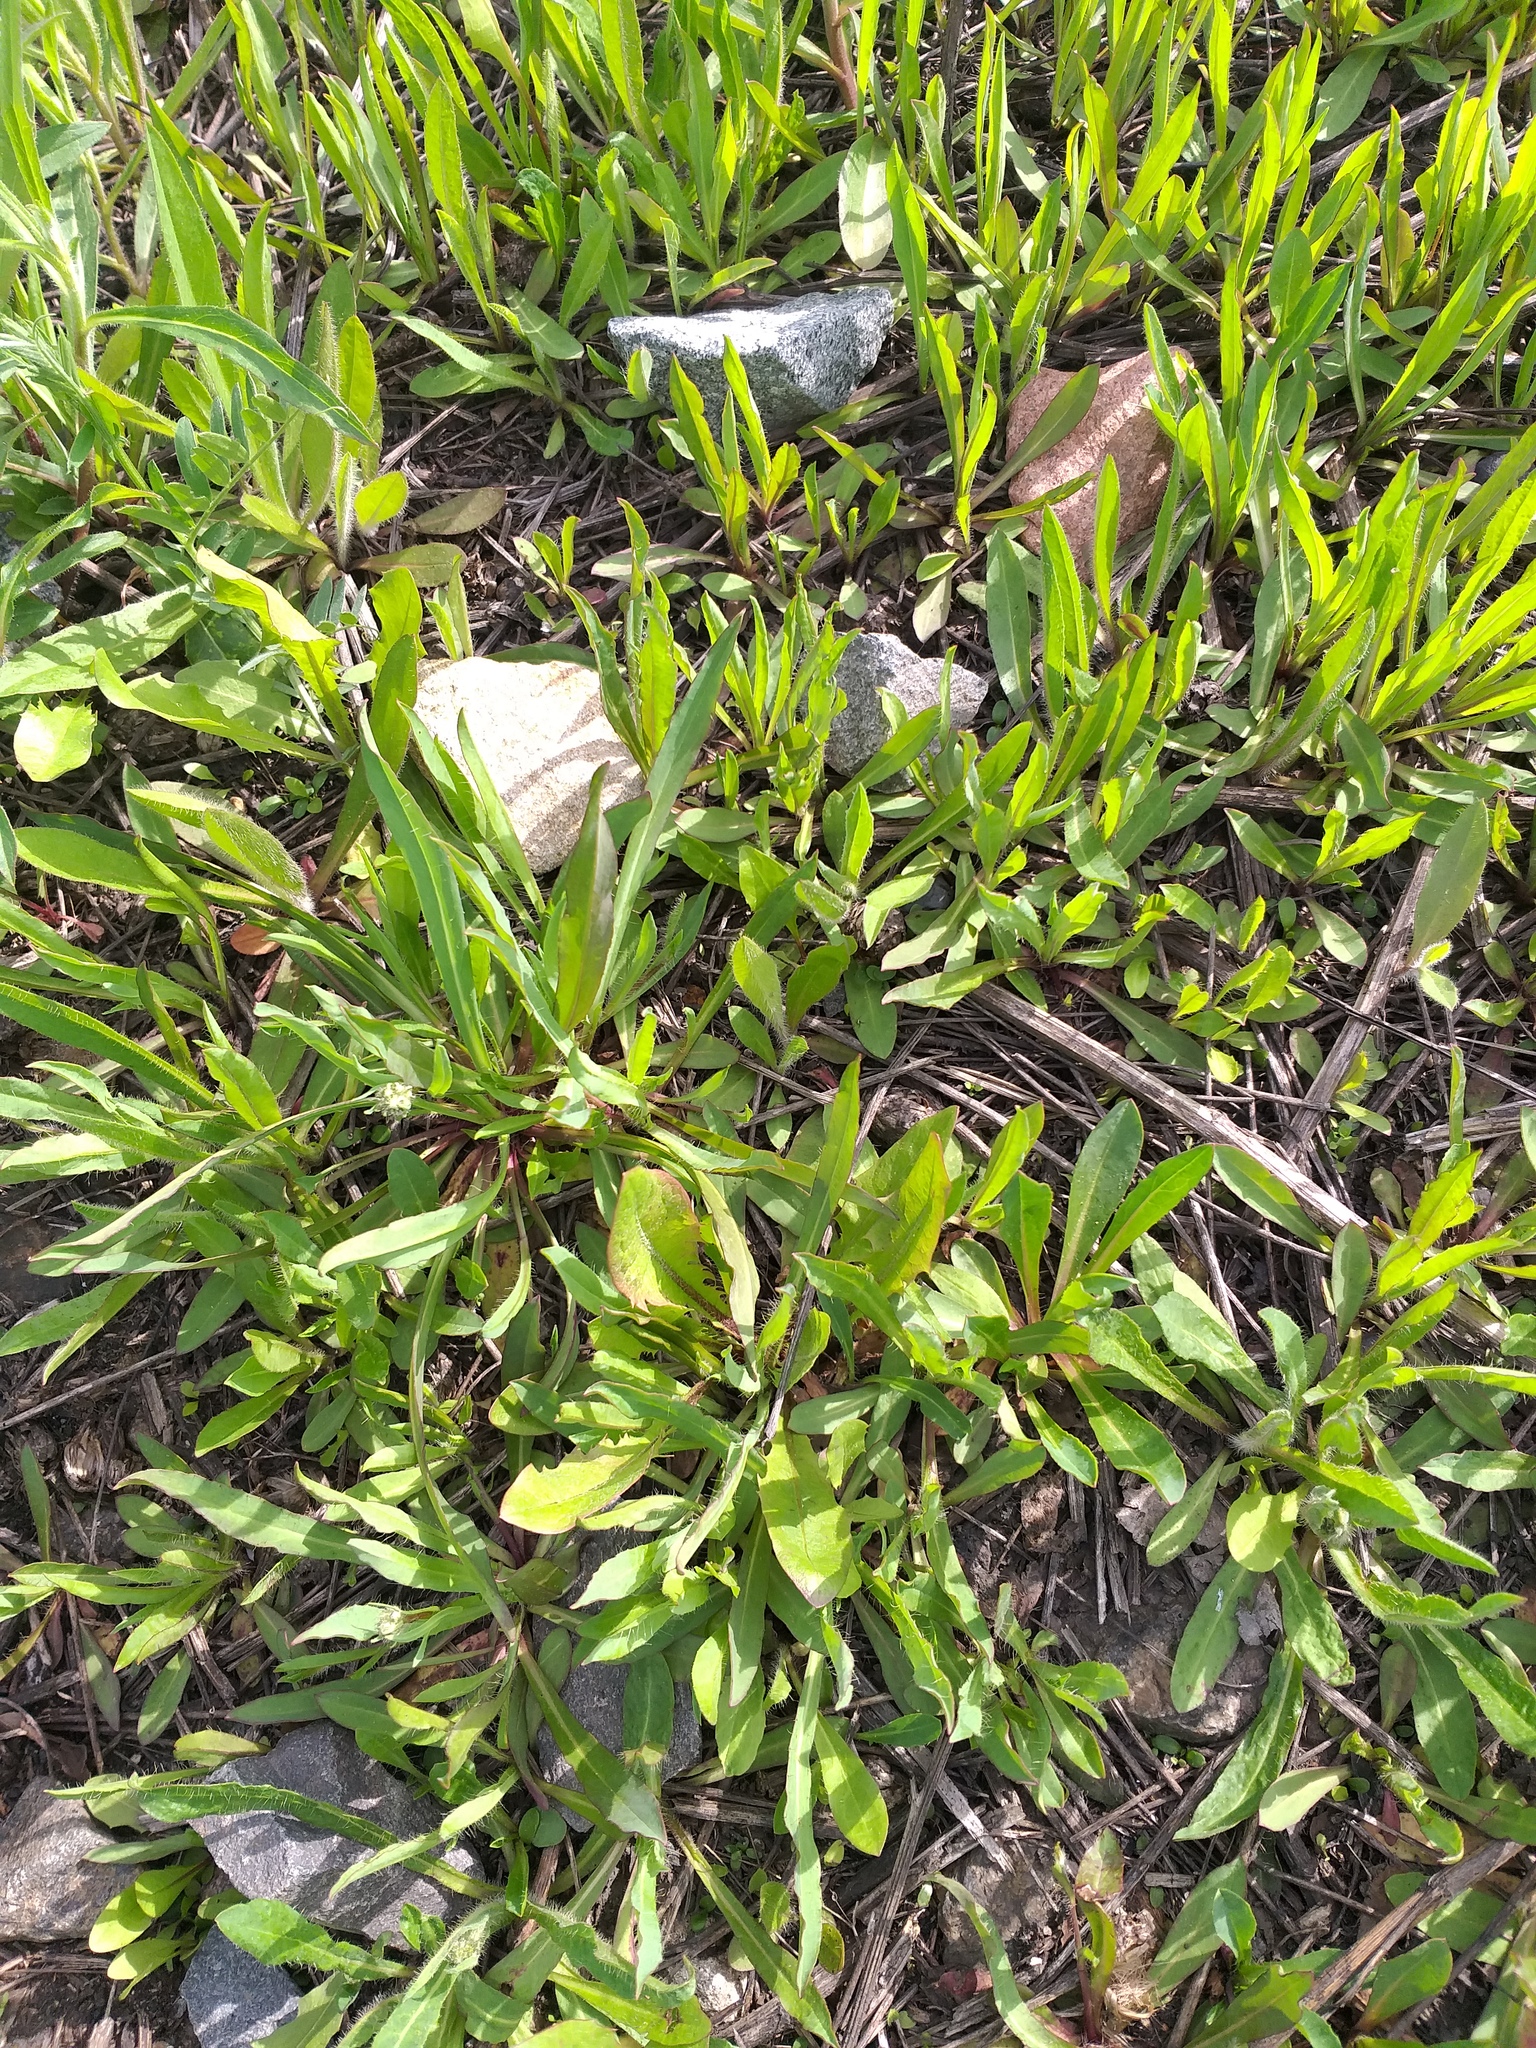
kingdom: Plantae
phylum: Tracheophyta
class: Magnoliopsida
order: Asterales
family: Asteraceae
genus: Pilosella
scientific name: Pilosella
